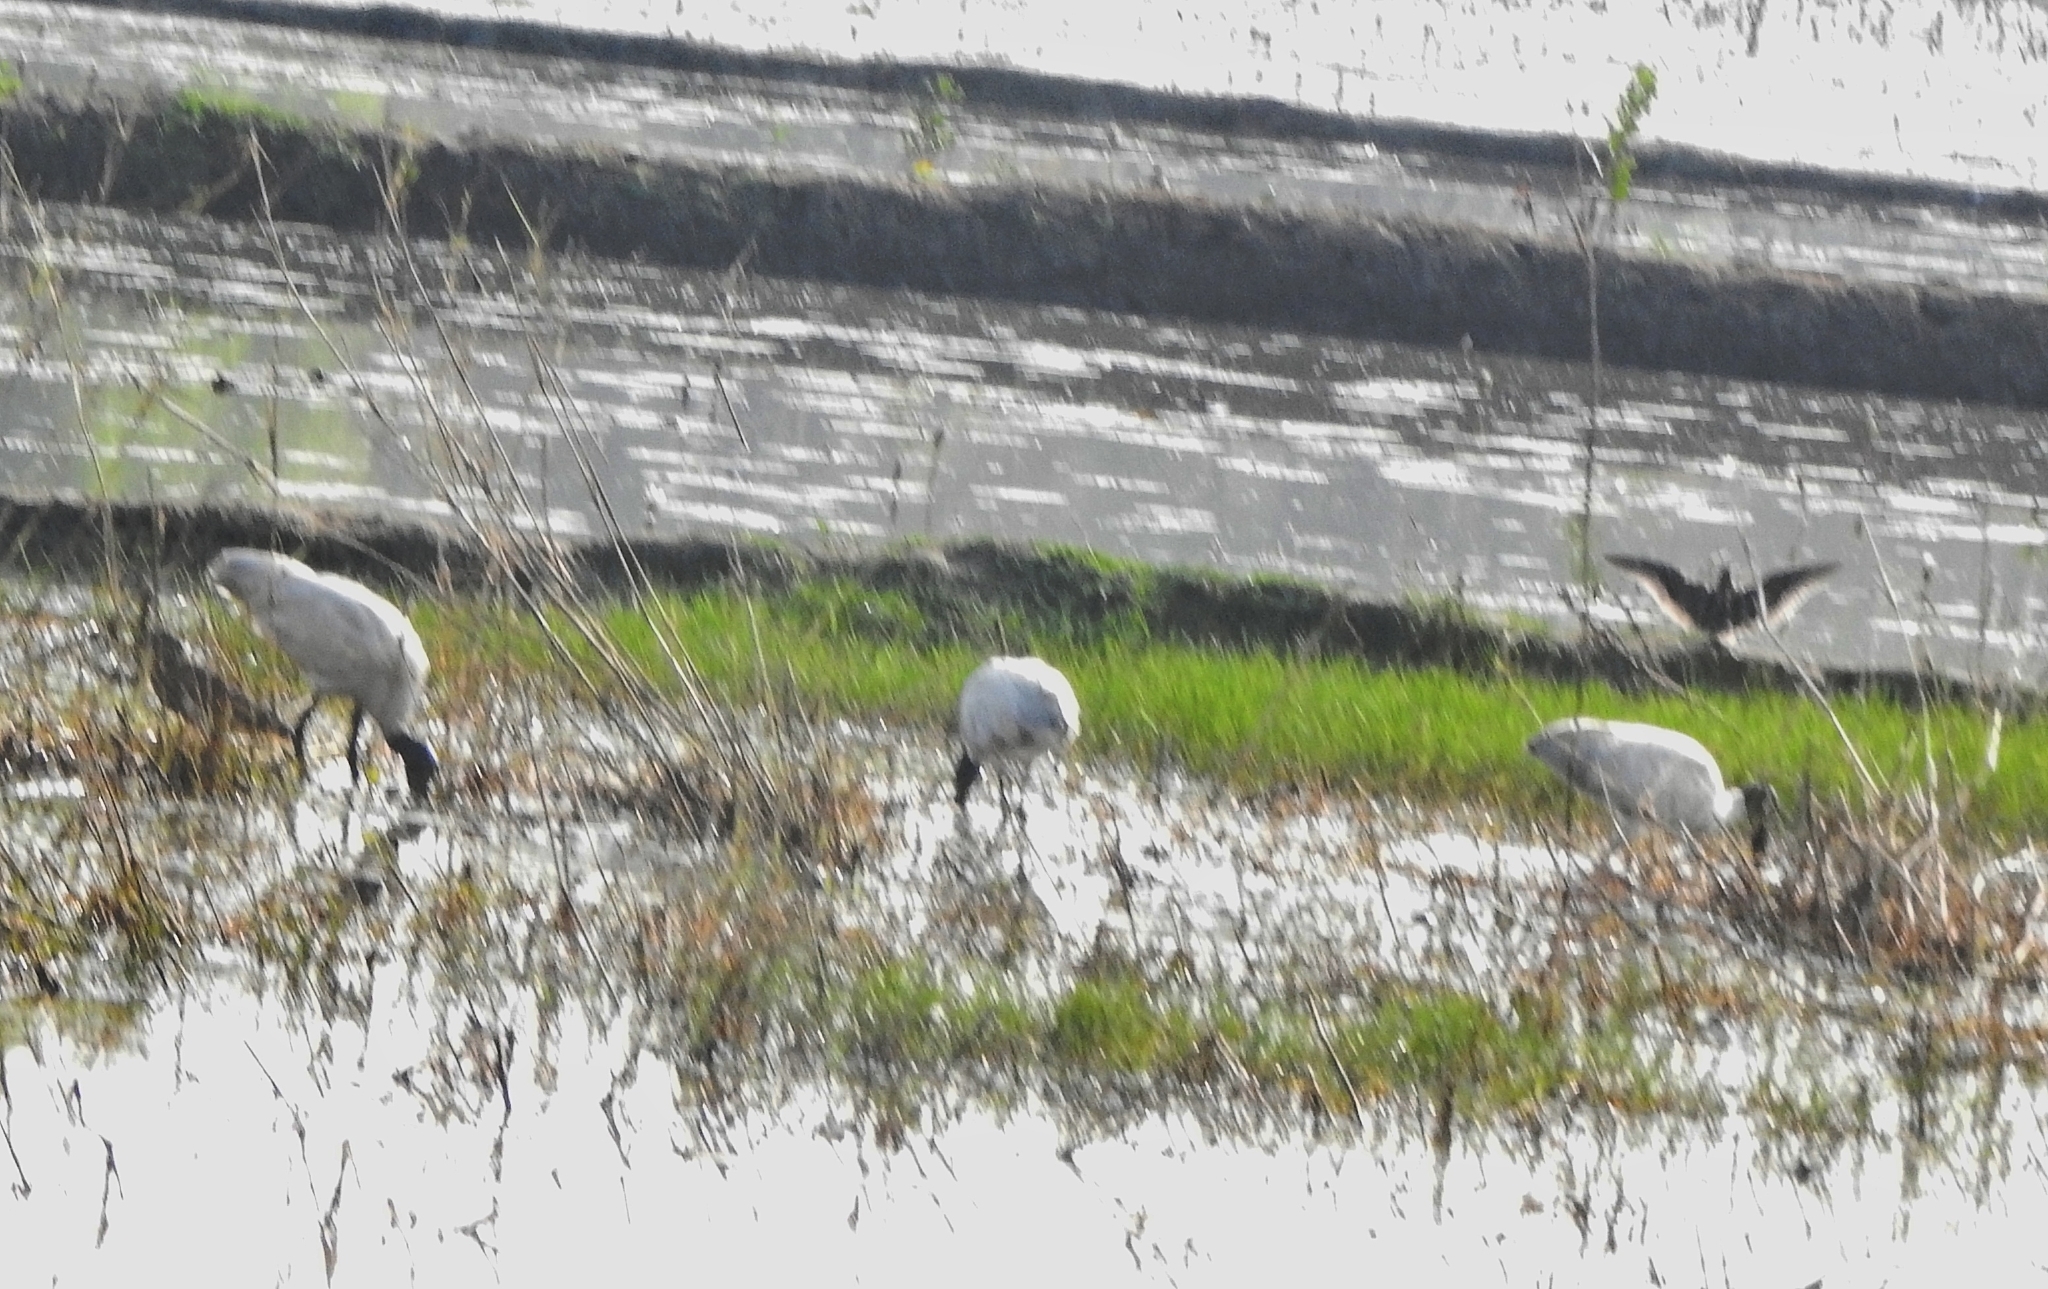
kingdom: Animalia
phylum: Chordata
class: Aves
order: Pelecaniformes
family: Threskiornithidae
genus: Threskiornis
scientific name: Threskiornis melanocephalus
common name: Black-headed ibis
